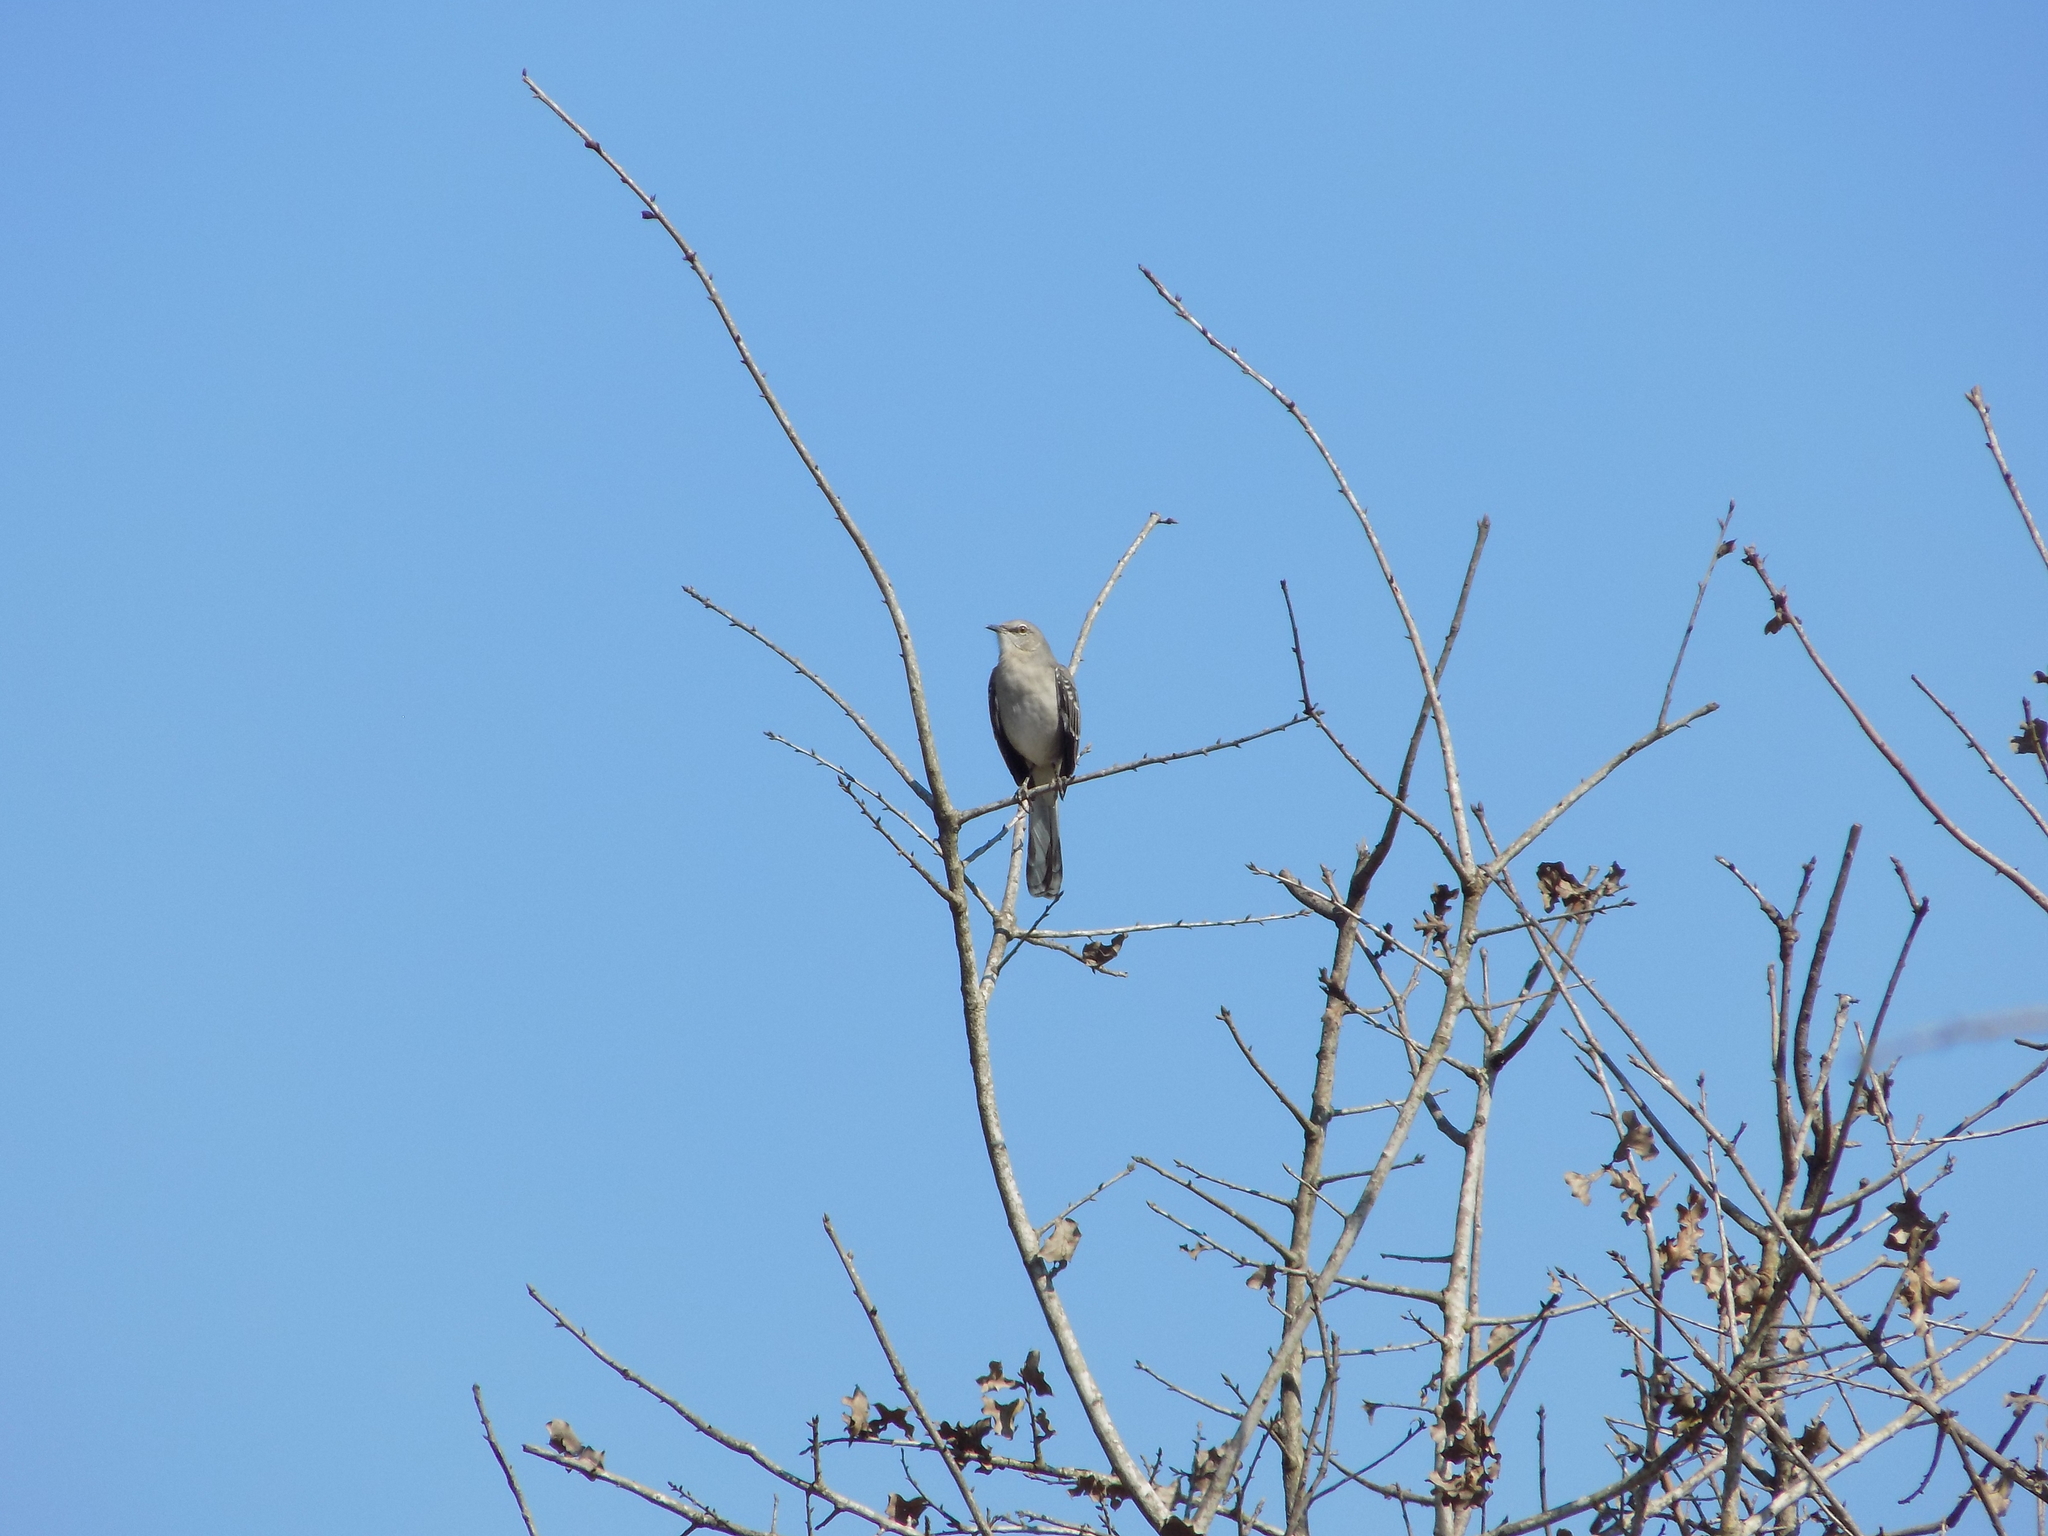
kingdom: Animalia
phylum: Chordata
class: Aves
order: Passeriformes
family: Mimidae
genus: Mimus
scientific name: Mimus polyglottos
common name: Northern mockingbird
